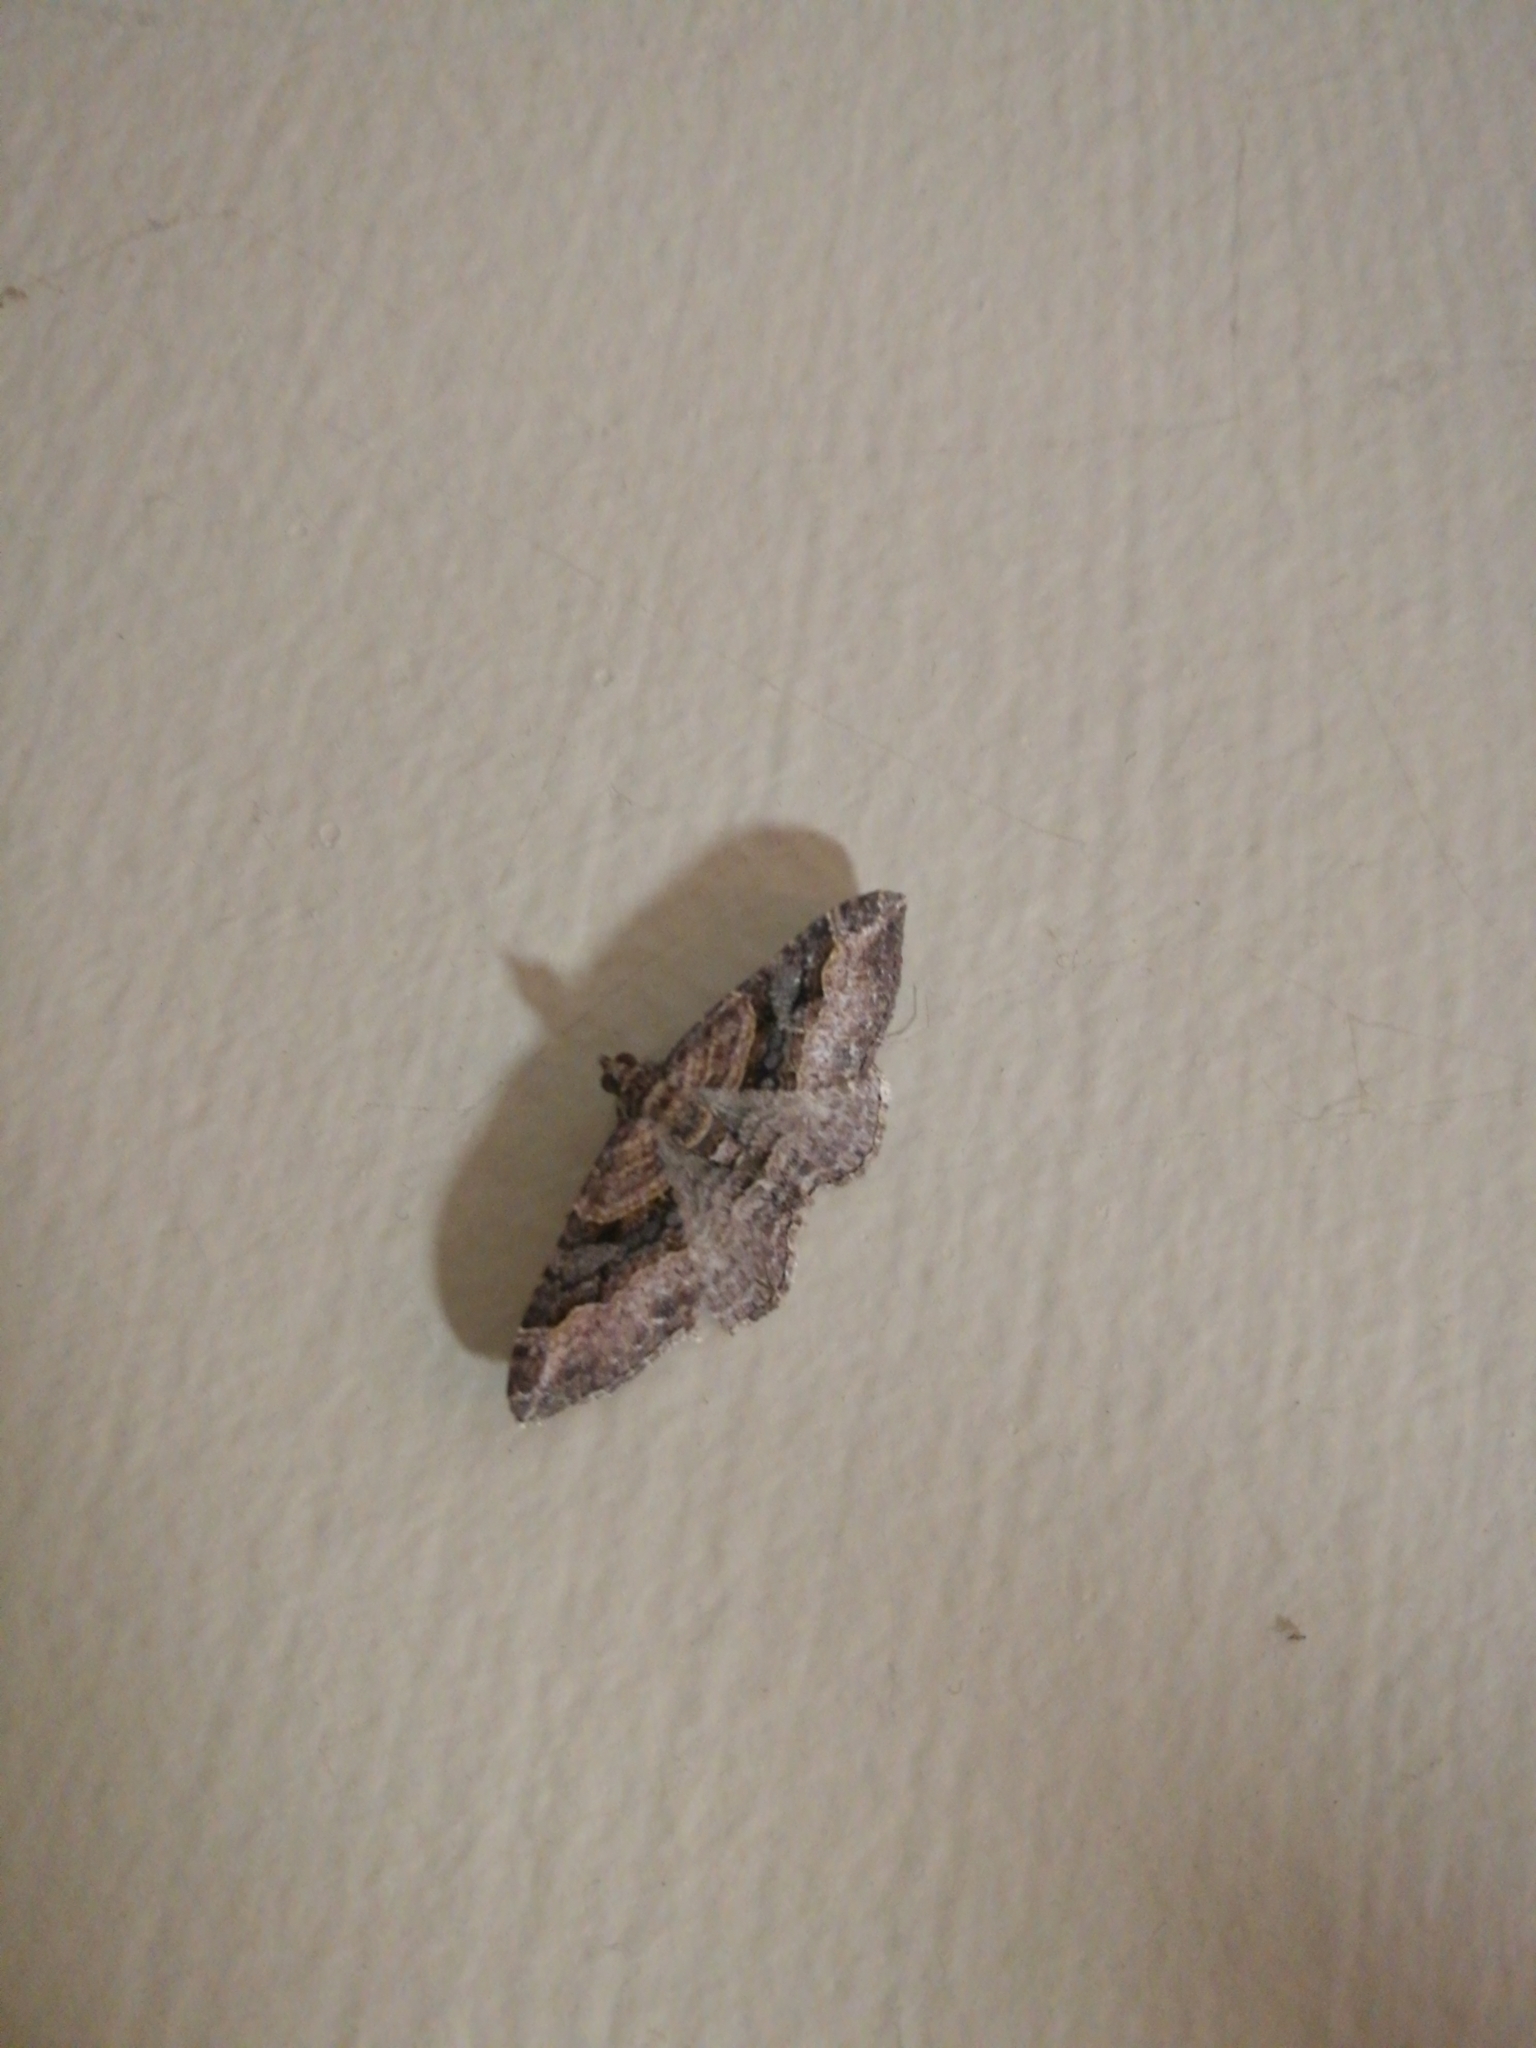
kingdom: Animalia
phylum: Arthropoda
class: Insecta
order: Lepidoptera
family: Geometridae
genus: Epyaxa
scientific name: Epyaxa lucidata
